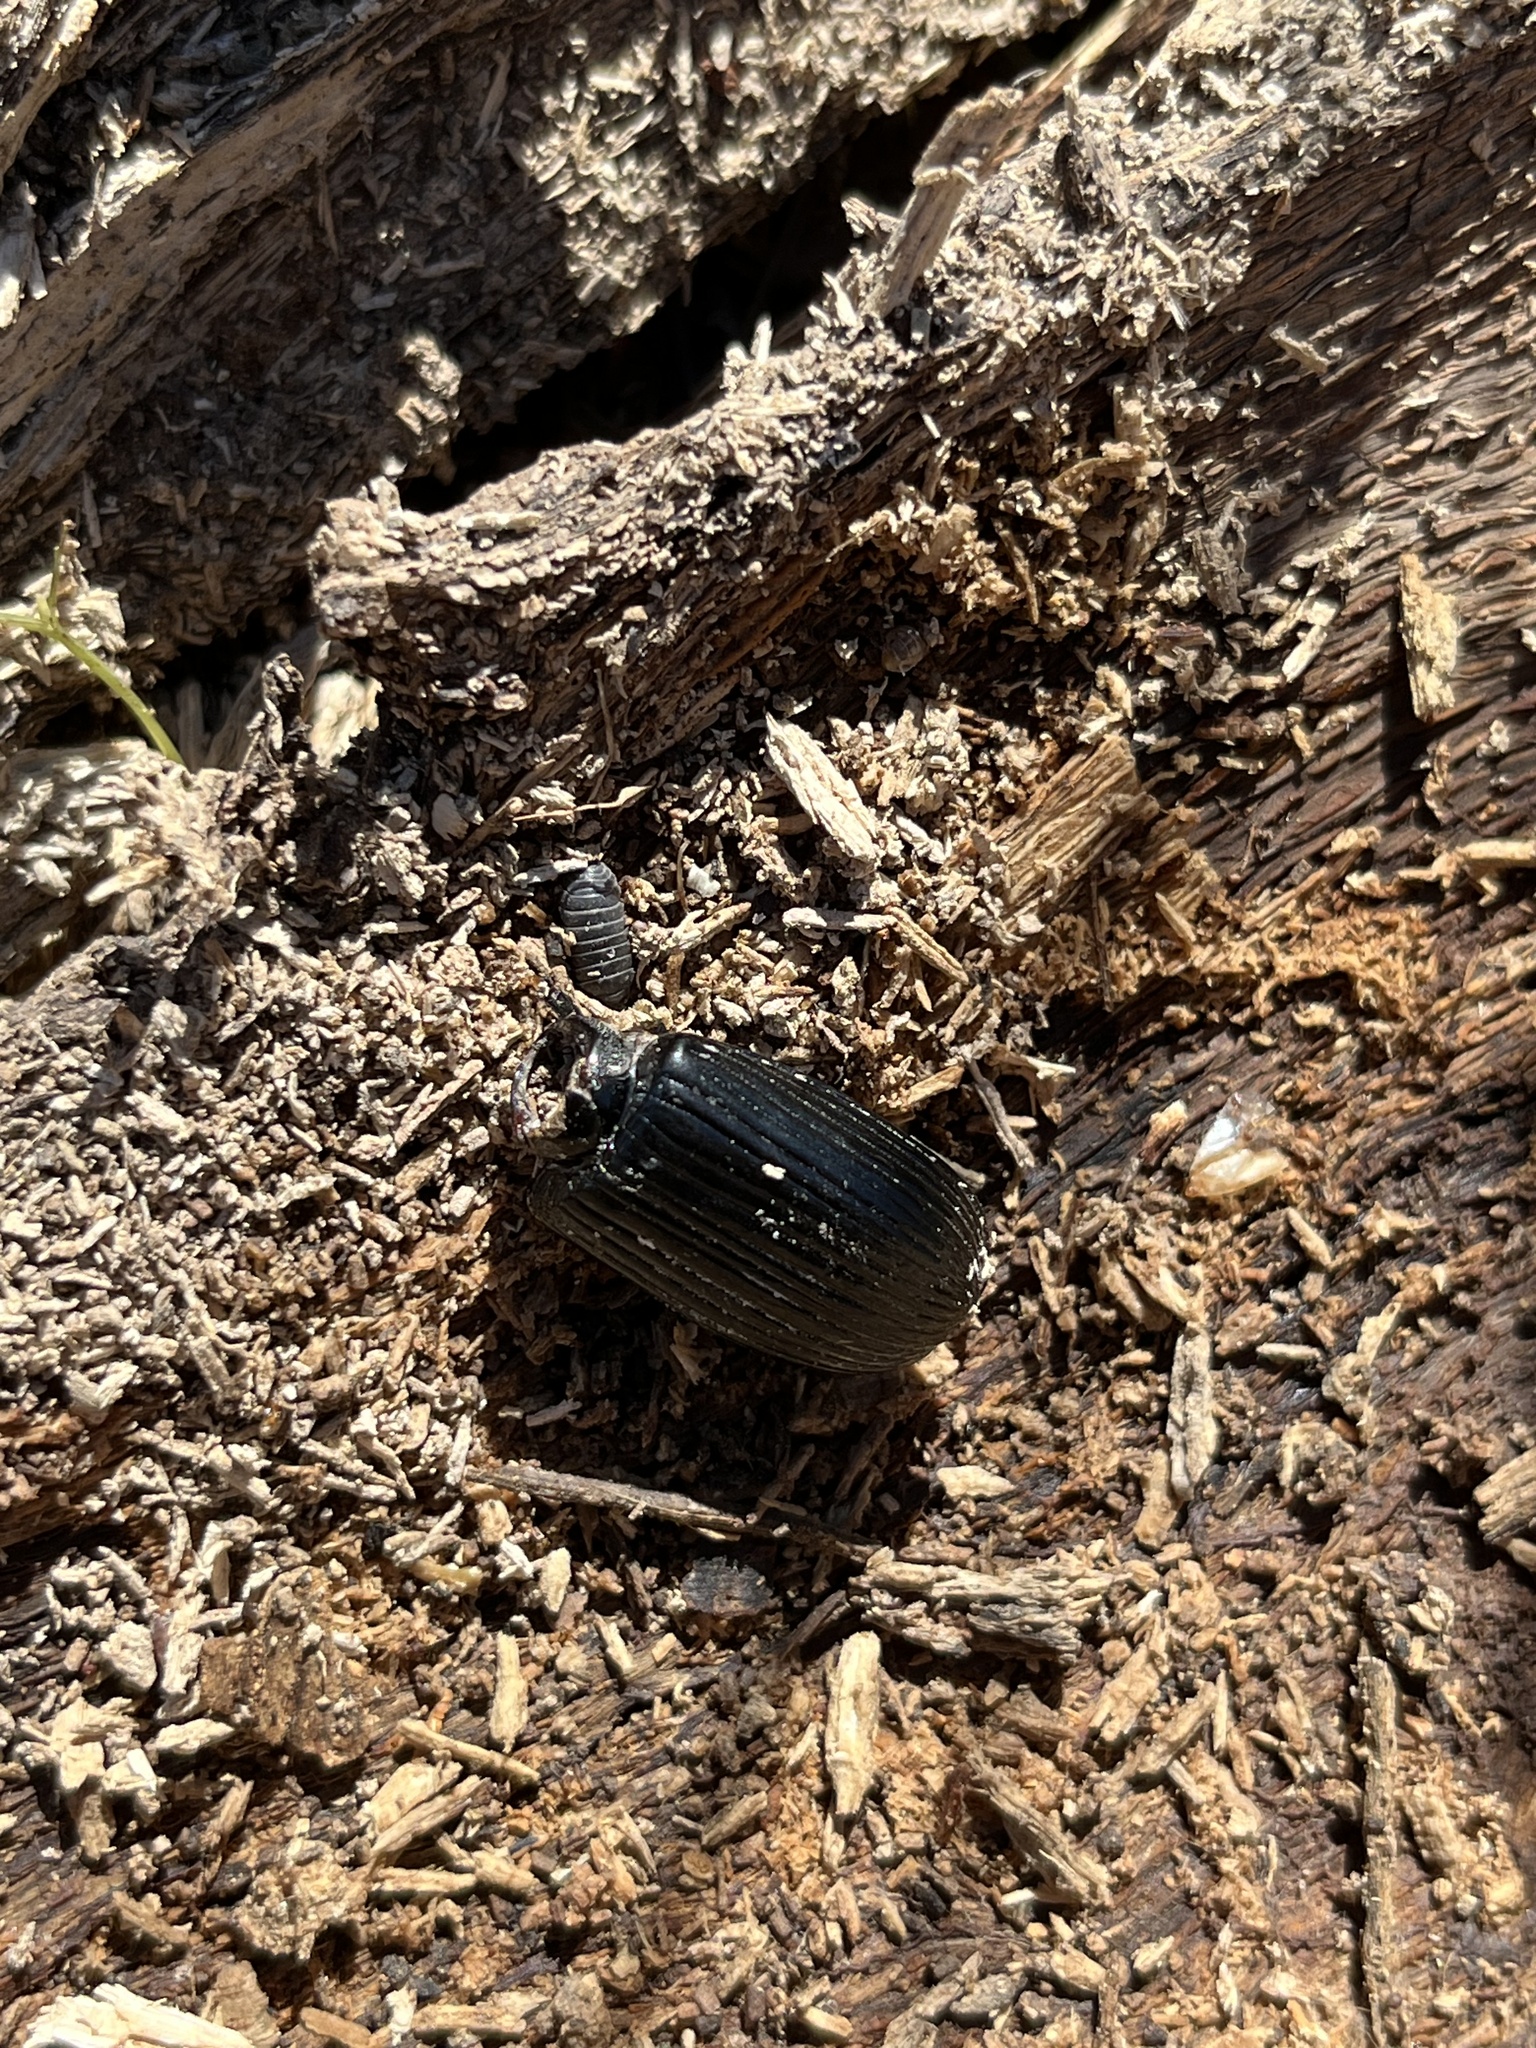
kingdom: Animalia
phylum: Arthropoda
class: Insecta
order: Coleoptera
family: Passalidae
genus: Odontotaenius
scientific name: Odontotaenius disjunctus
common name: Patent leather beetle
